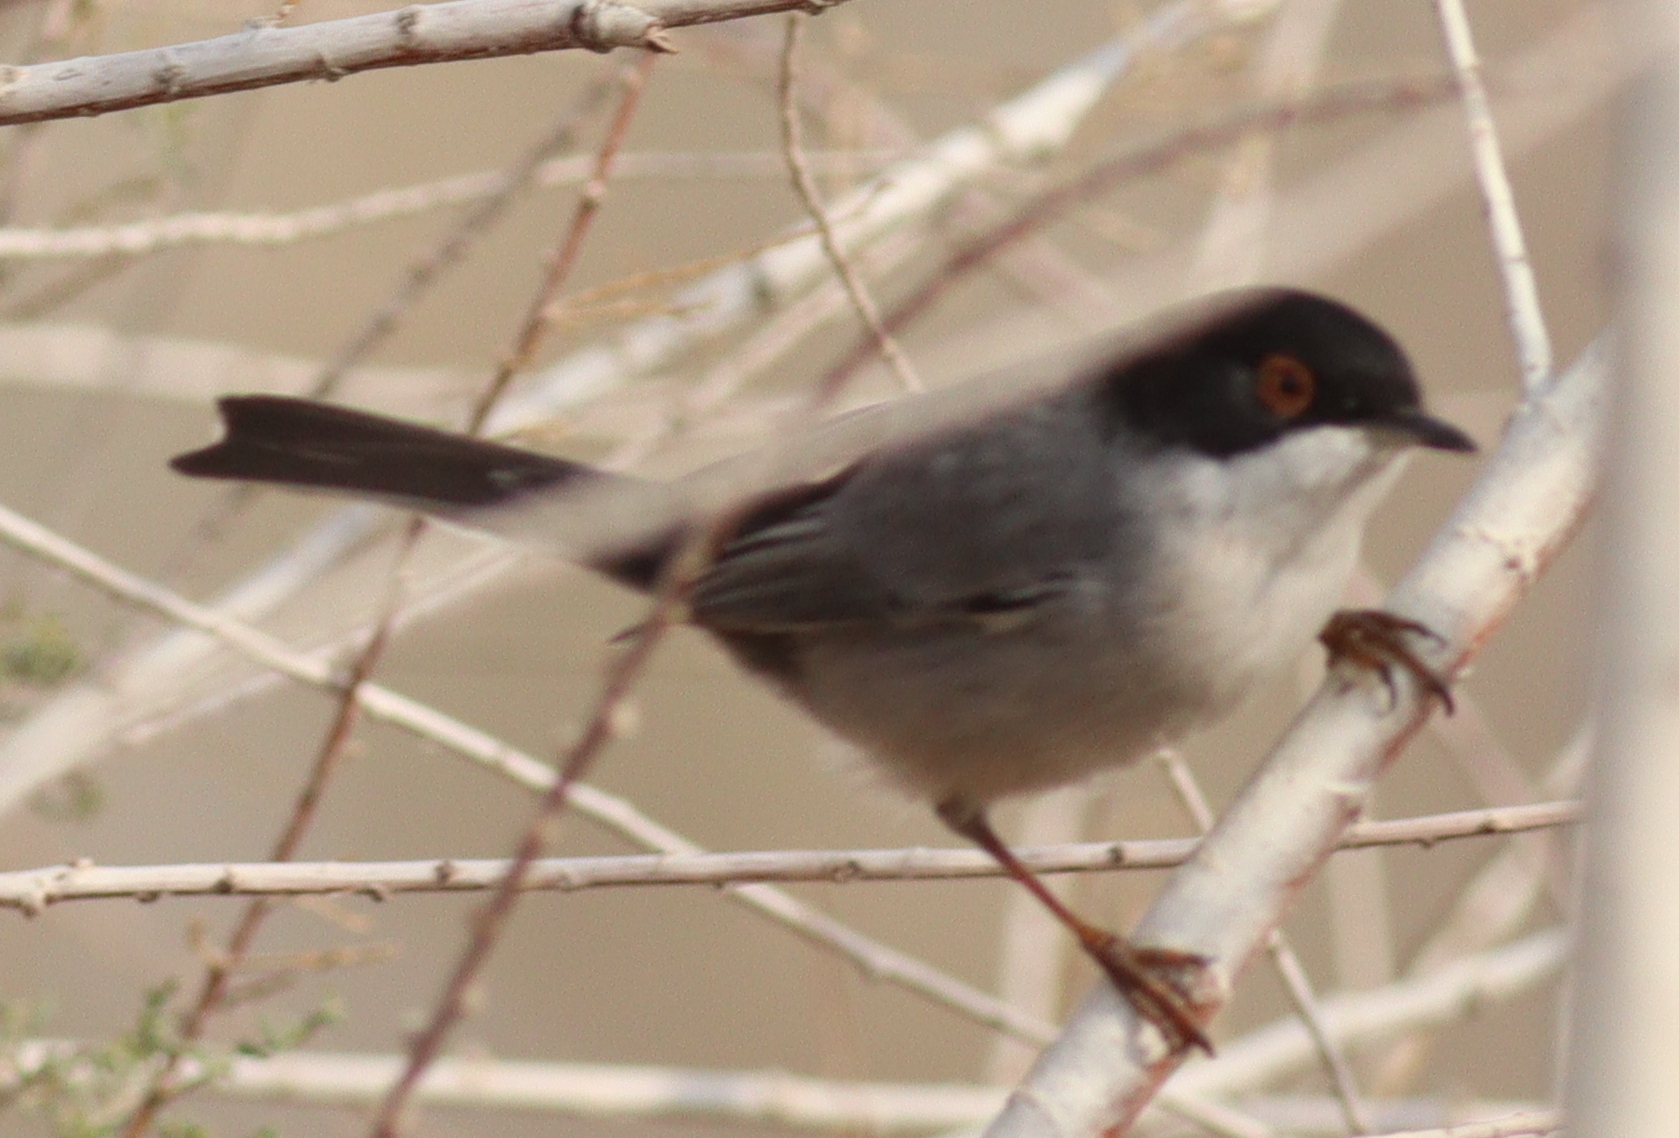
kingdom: Animalia
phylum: Chordata
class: Aves
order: Passeriformes
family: Sylviidae
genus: Curruca
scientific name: Curruca melanocephala
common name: Sardinian warbler
